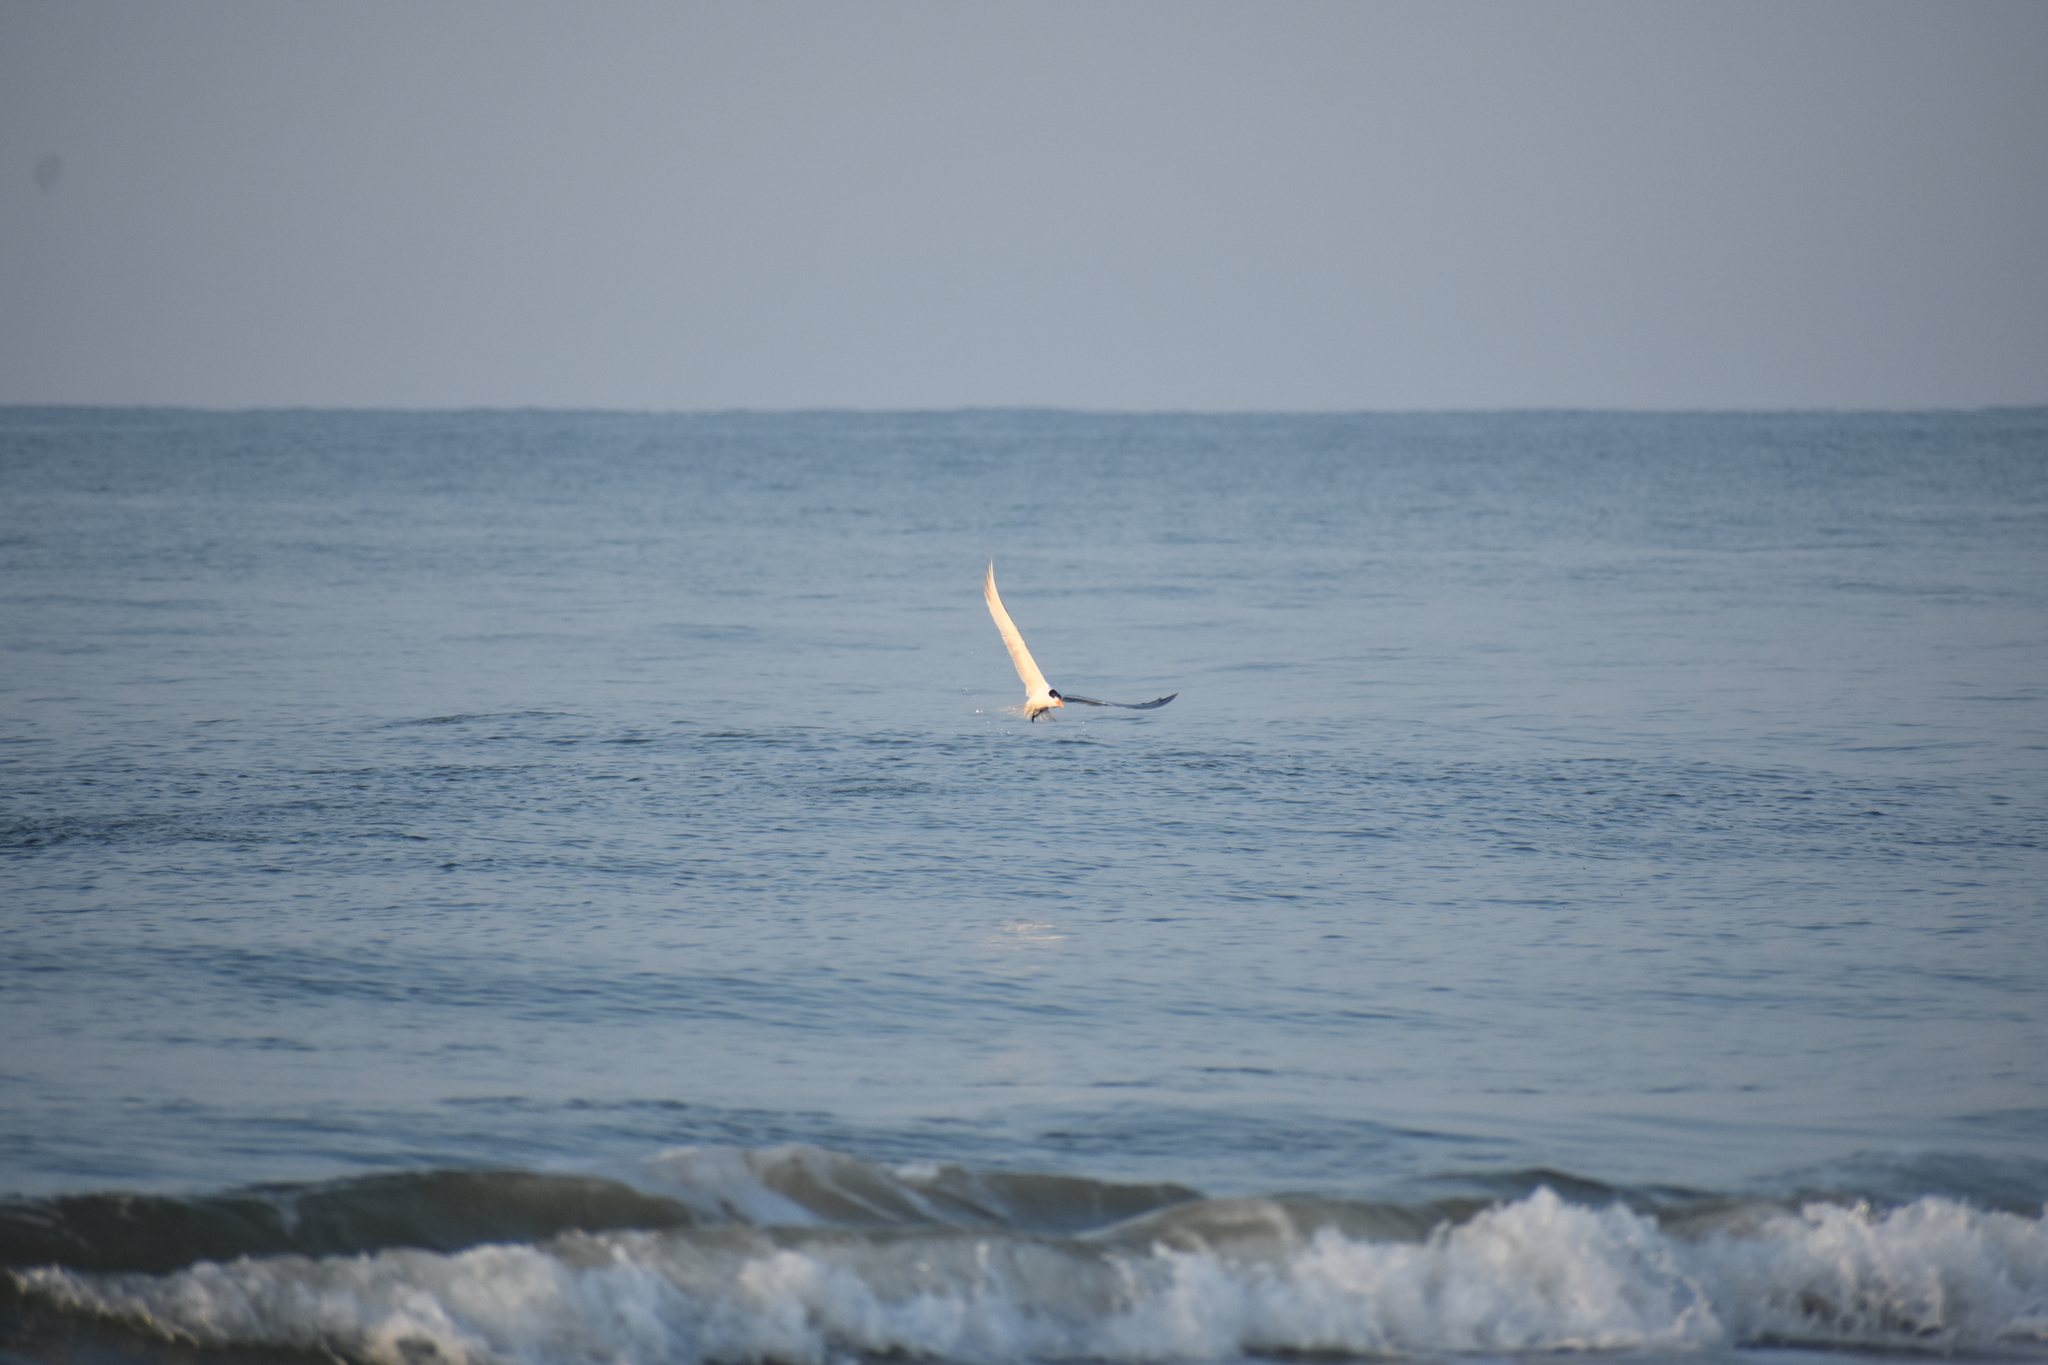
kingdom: Animalia
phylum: Chordata
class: Aves
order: Charadriiformes
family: Laridae
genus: Thalasseus
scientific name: Thalasseus maximus
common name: Royal tern
